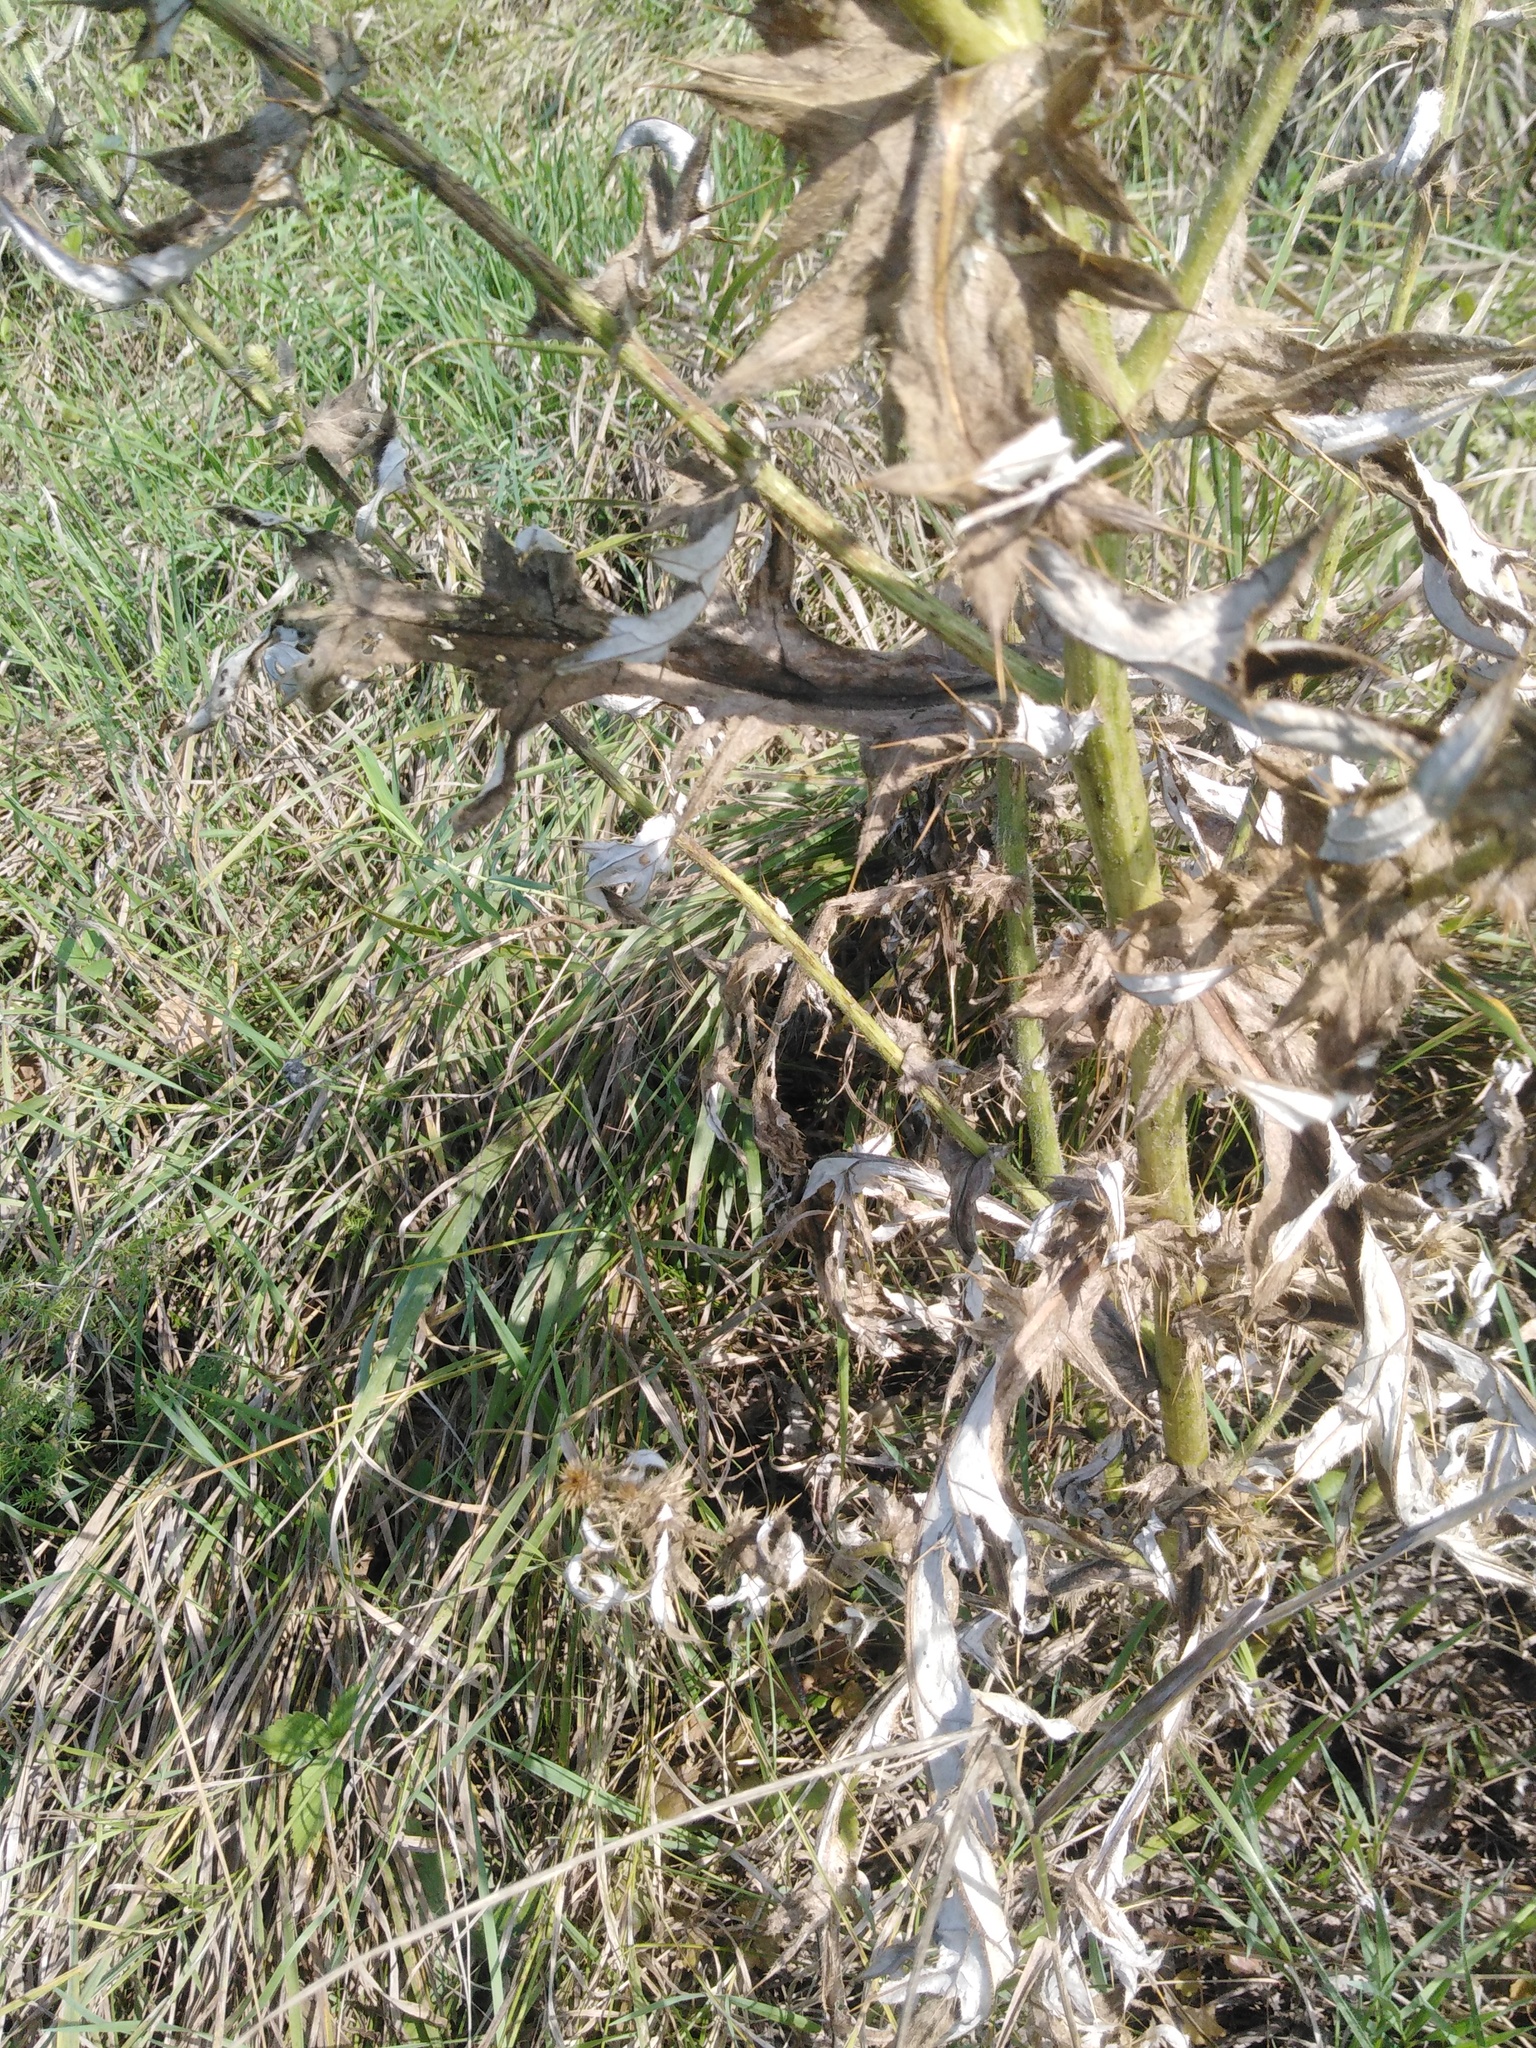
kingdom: Plantae
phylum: Tracheophyta
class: Magnoliopsida
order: Asterales
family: Asteraceae
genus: Cirsium
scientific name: Cirsium serrulatum
